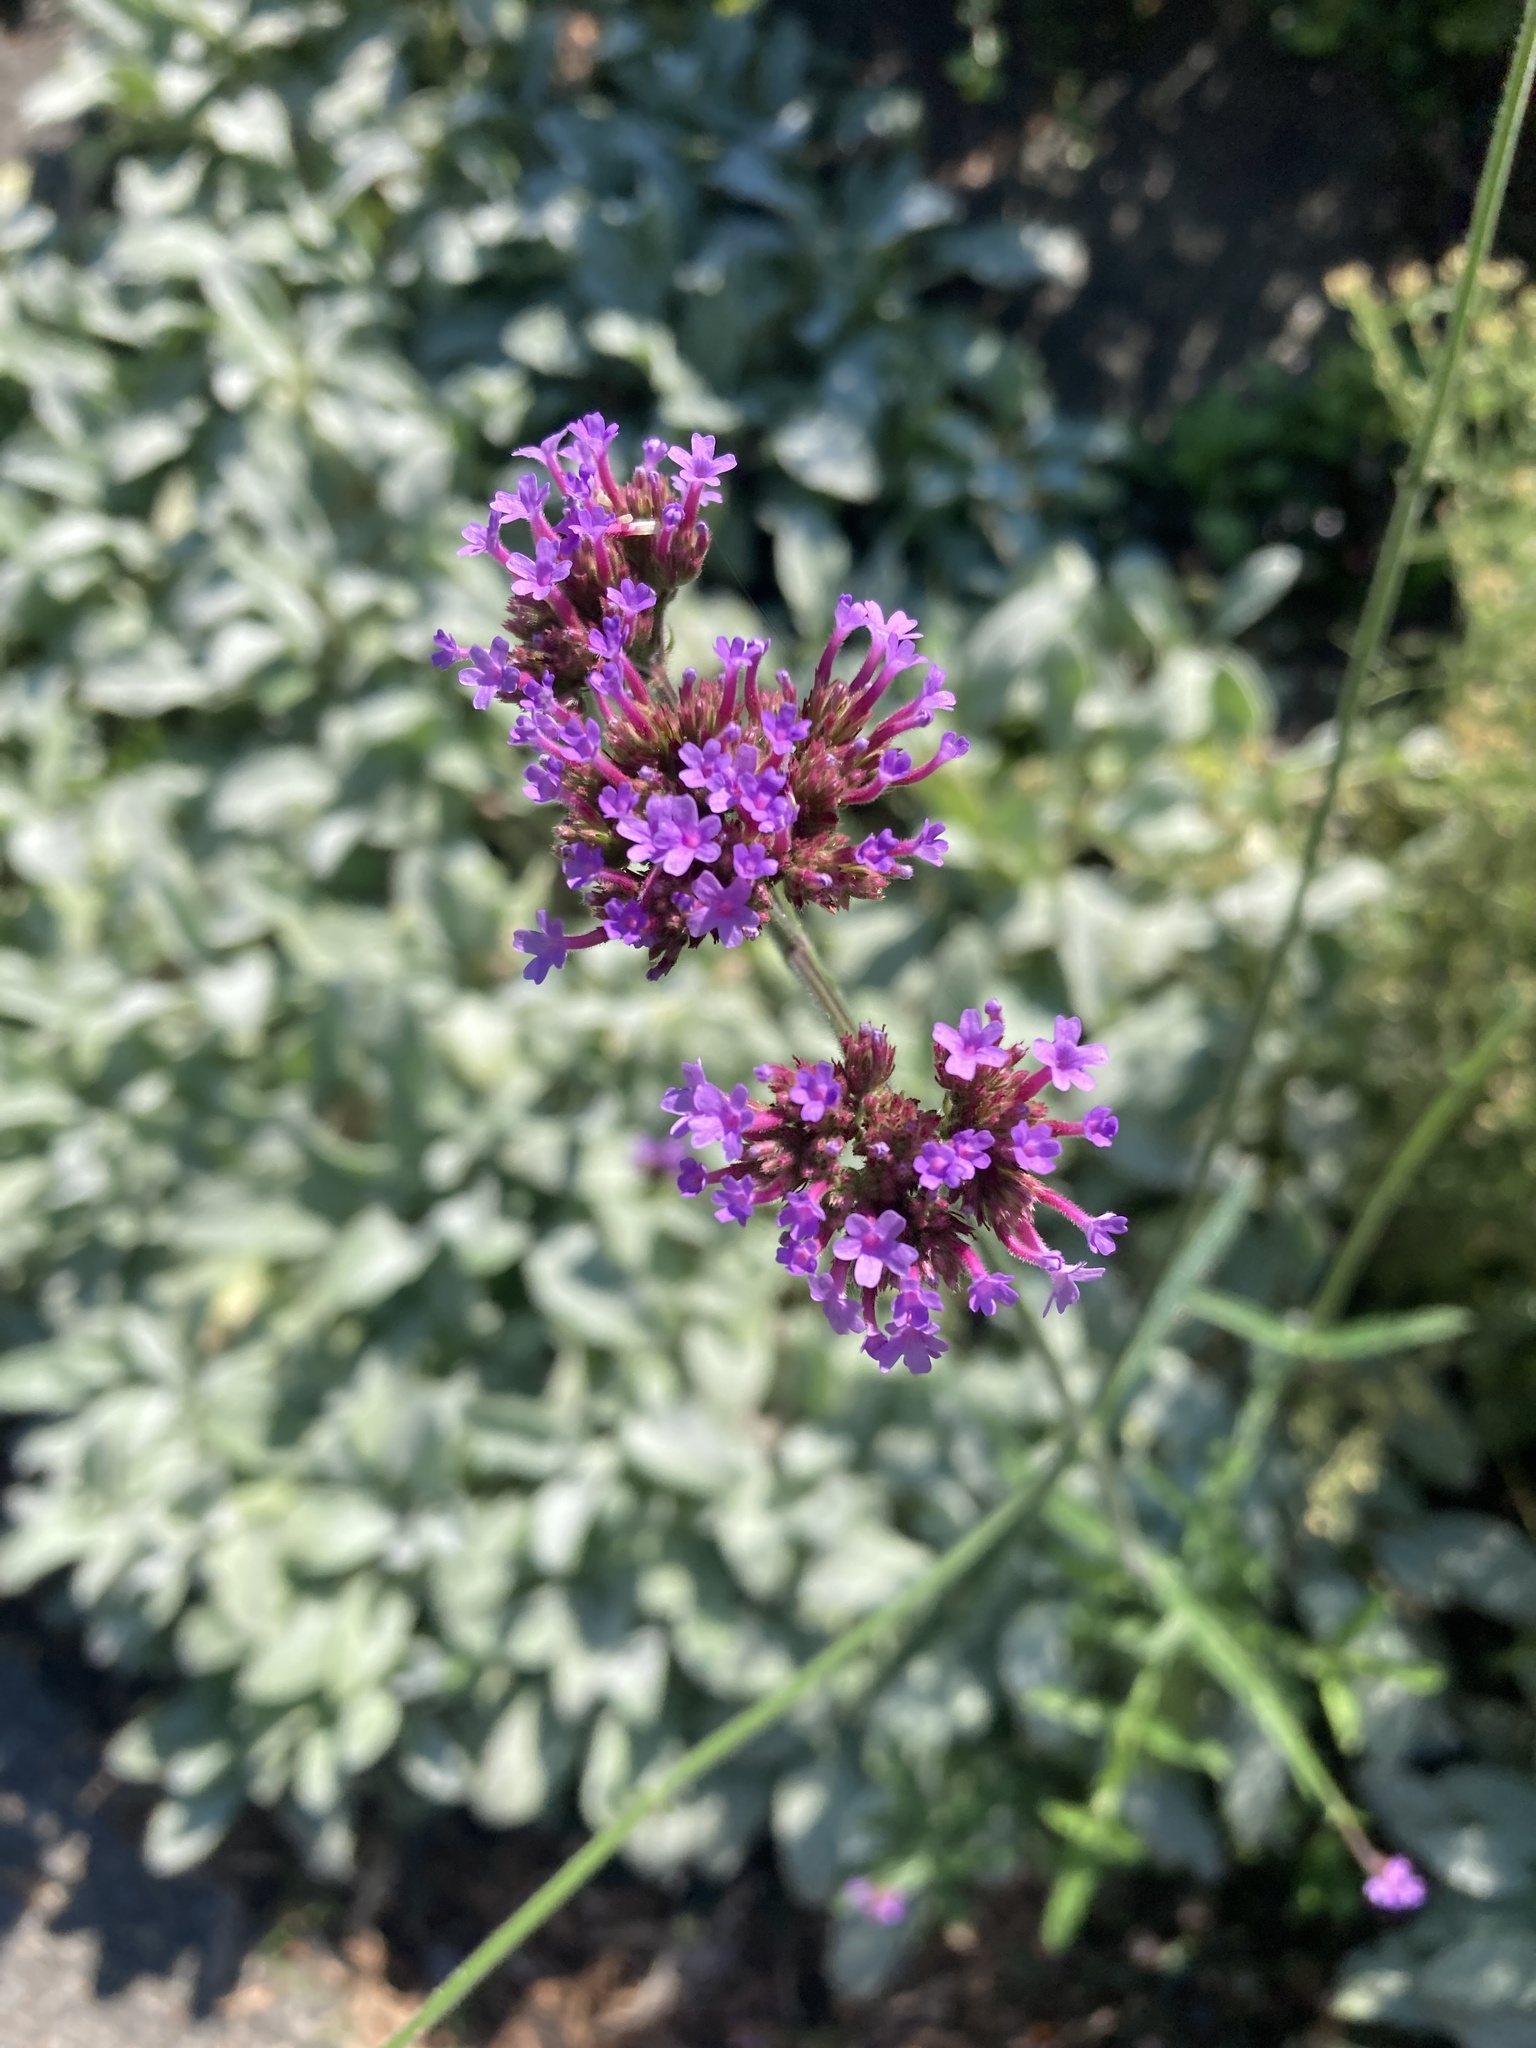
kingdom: Plantae
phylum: Tracheophyta
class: Magnoliopsida
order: Lamiales
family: Verbenaceae
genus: Verbena
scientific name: Verbena bonariensis
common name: Purpletop vervain
